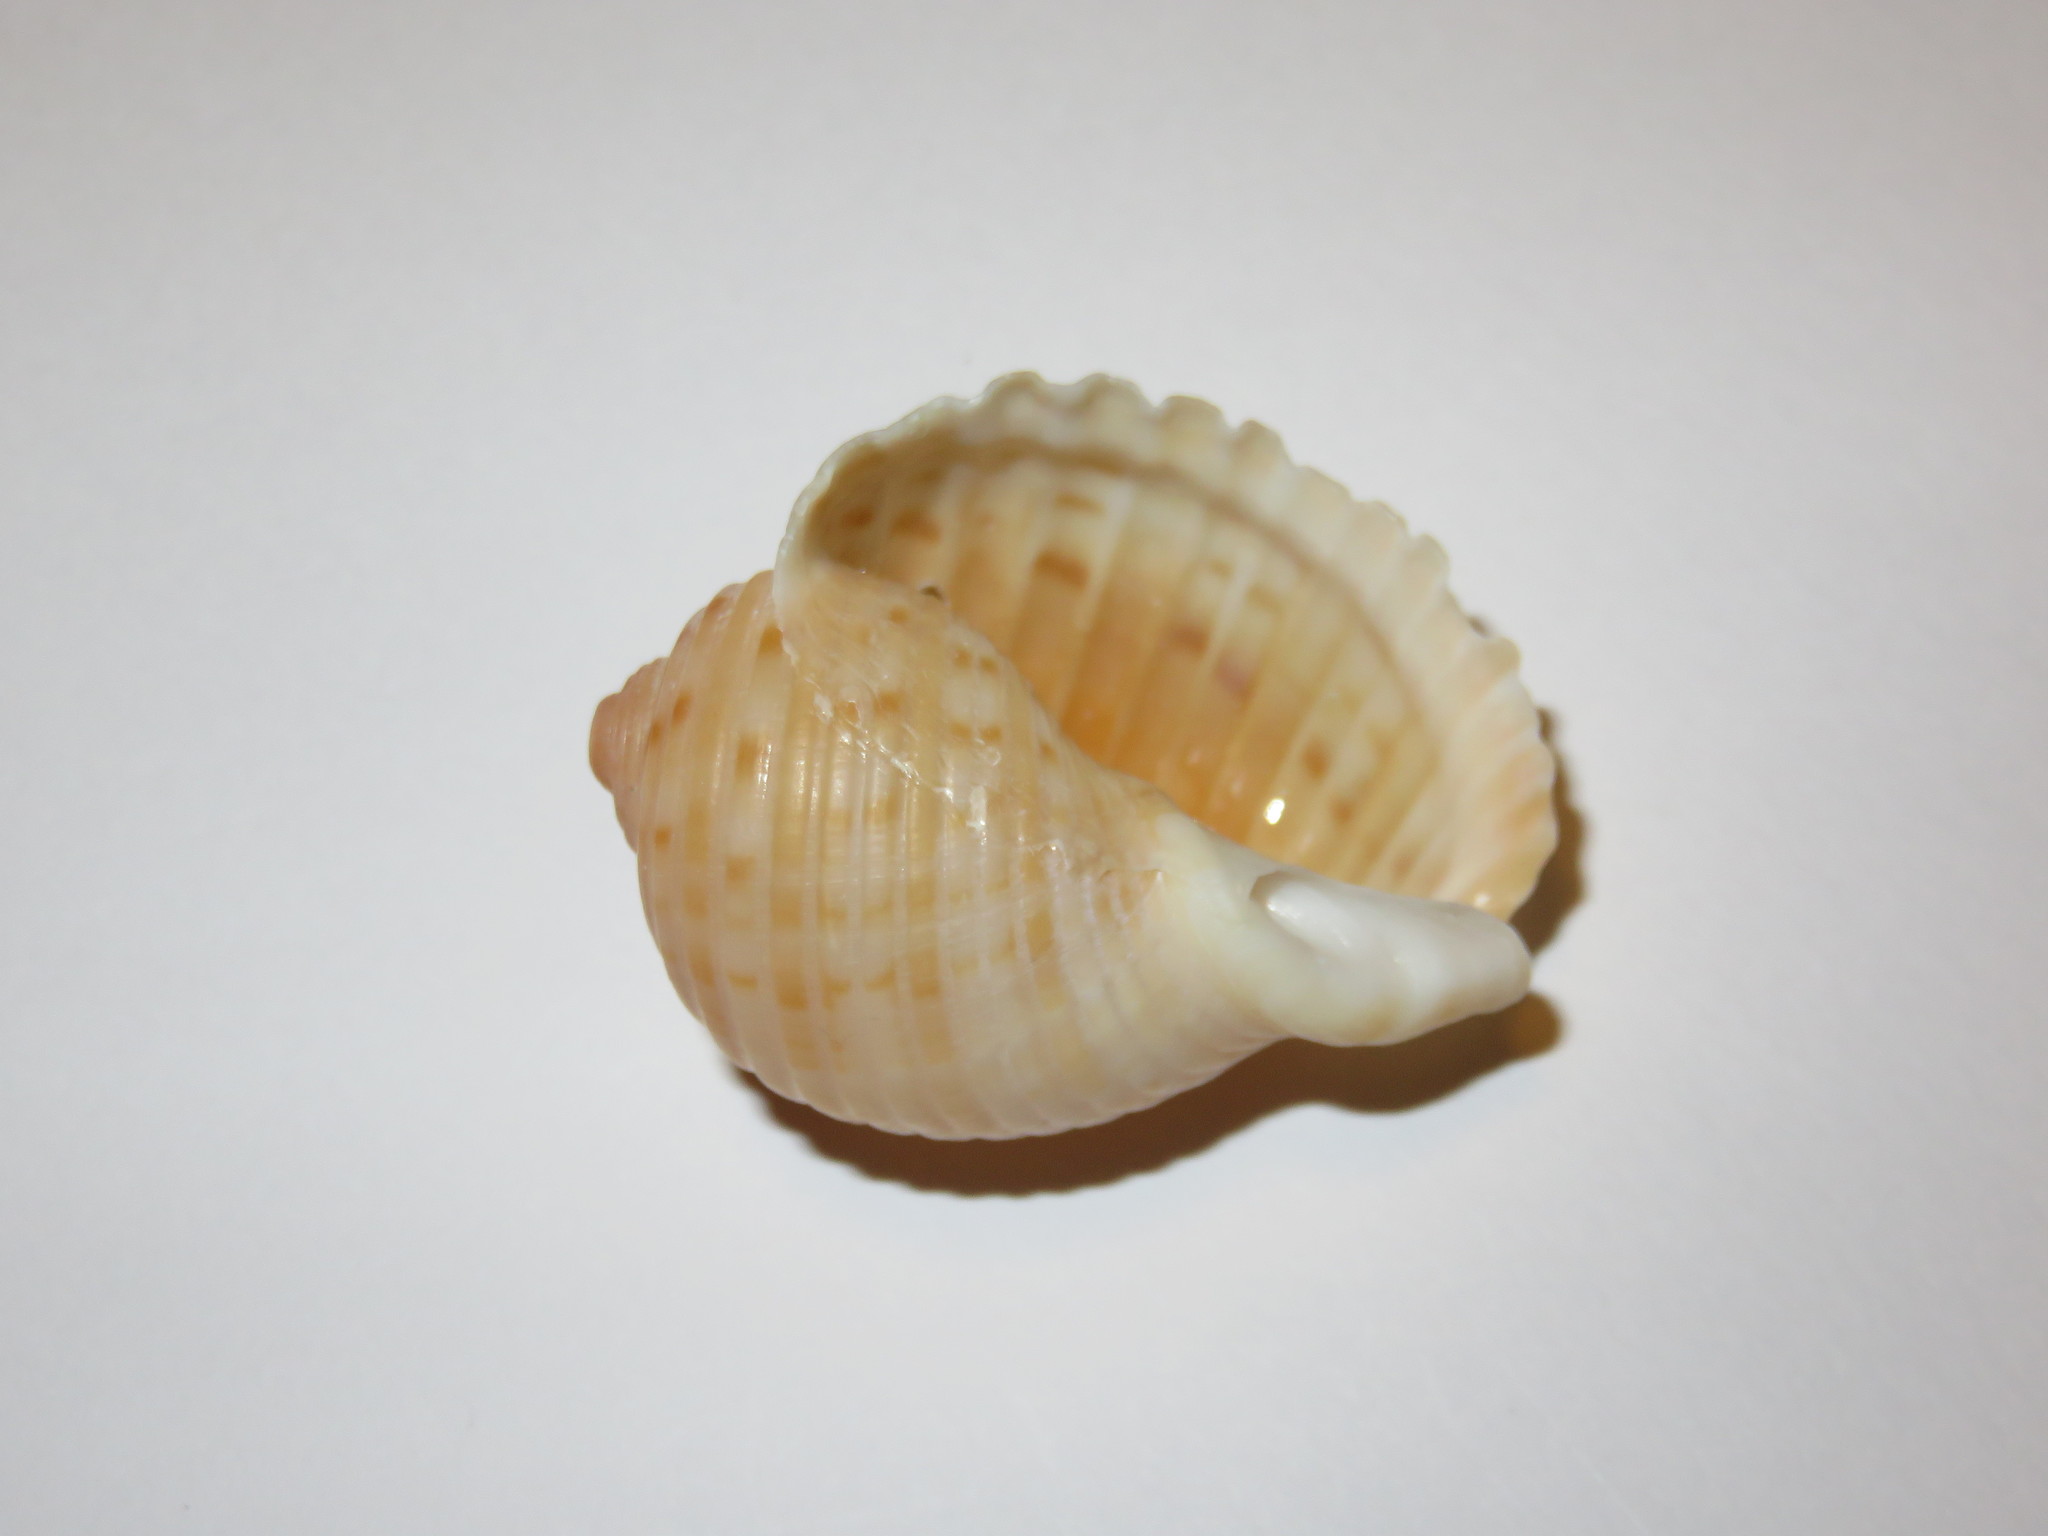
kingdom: Animalia
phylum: Mollusca
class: Gastropoda
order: Littorinimorpha
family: Tonnidae
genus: Tonna
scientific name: Tonna luteostoma
